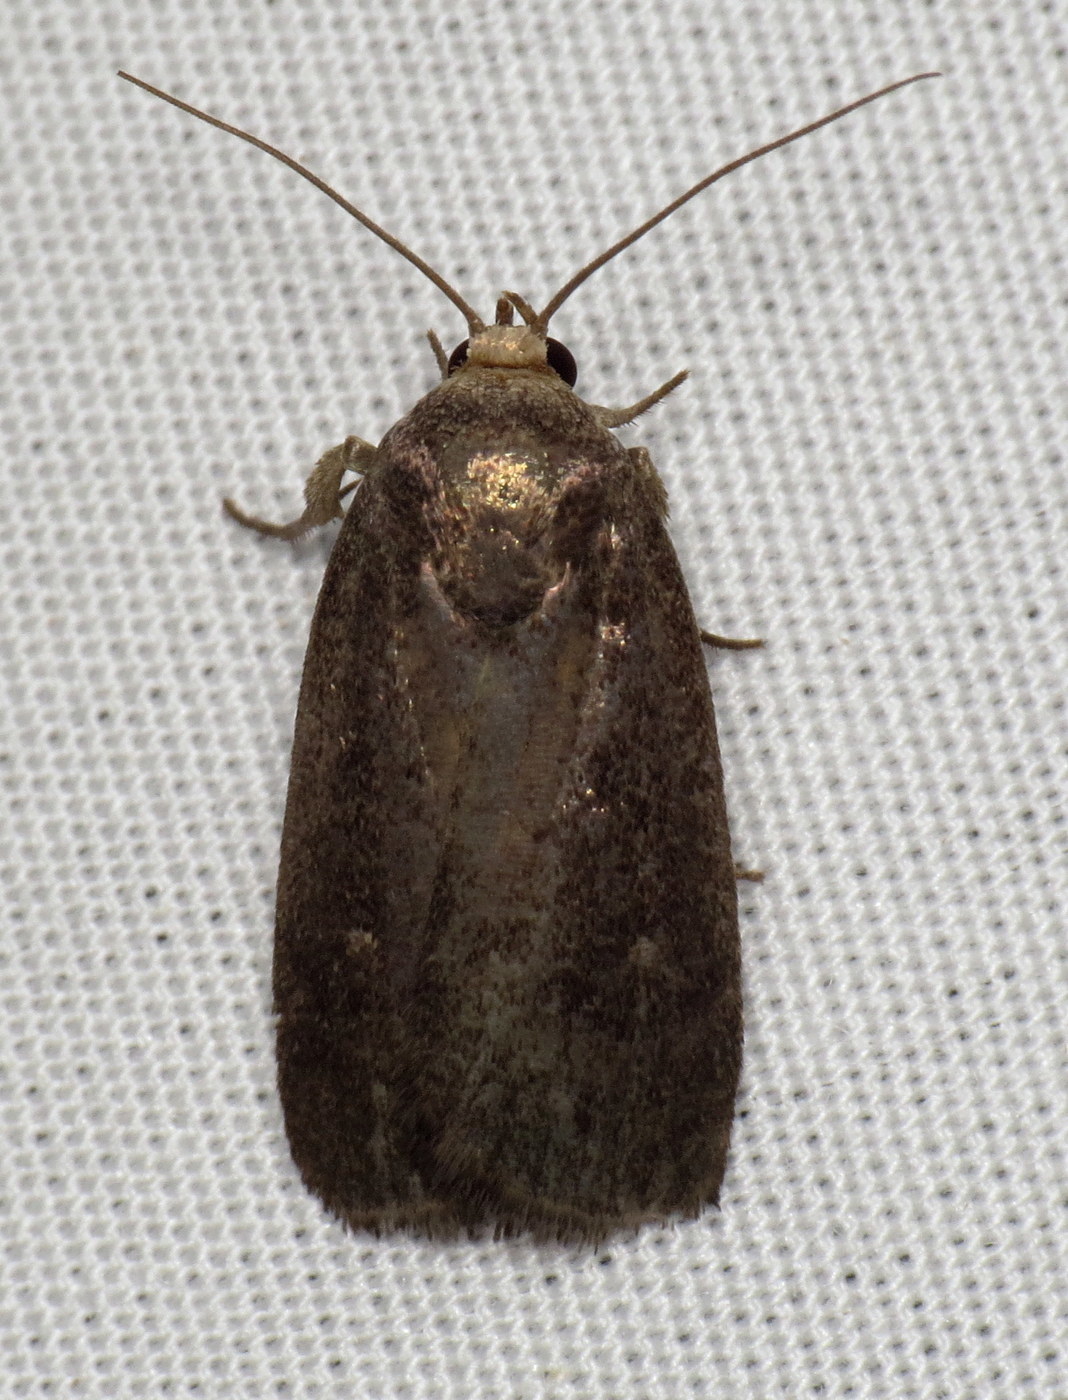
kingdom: Animalia
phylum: Arthropoda
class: Insecta
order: Lepidoptera
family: Noctuidae
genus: Proxenus
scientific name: Proxenus miranda
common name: Miranda moth
